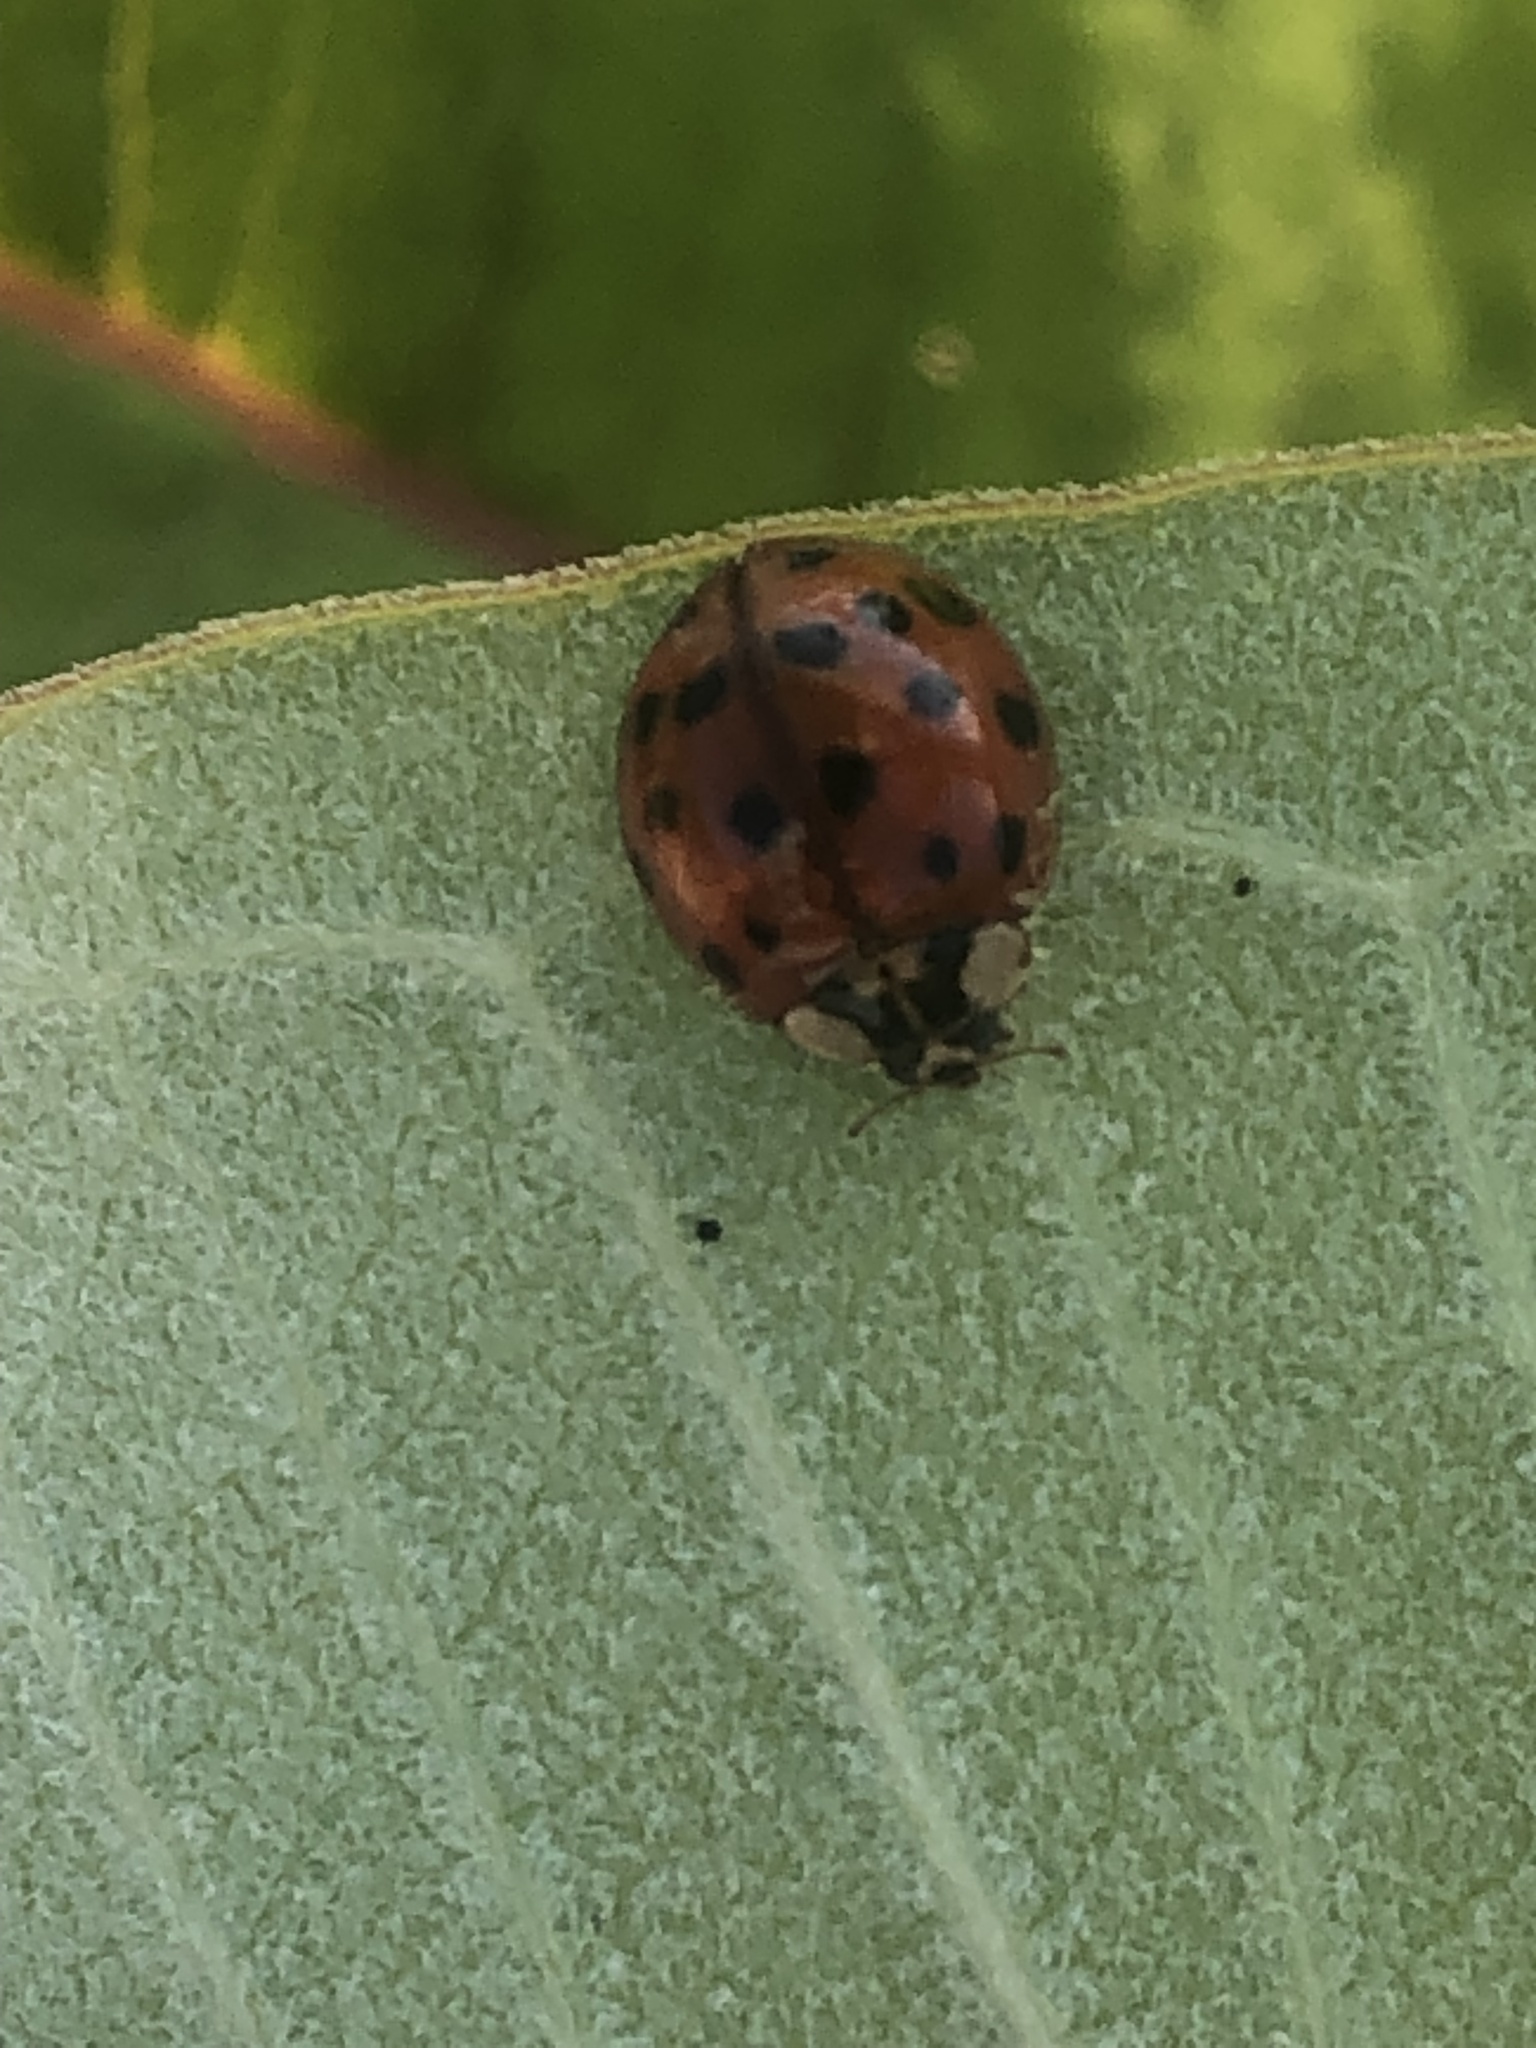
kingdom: Animalia
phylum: Arthropoda
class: Insecta
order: Coleoptera
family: Coccinellidae
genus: Harmonia
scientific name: Harmonia axyridis
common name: Harlequin ladybird
